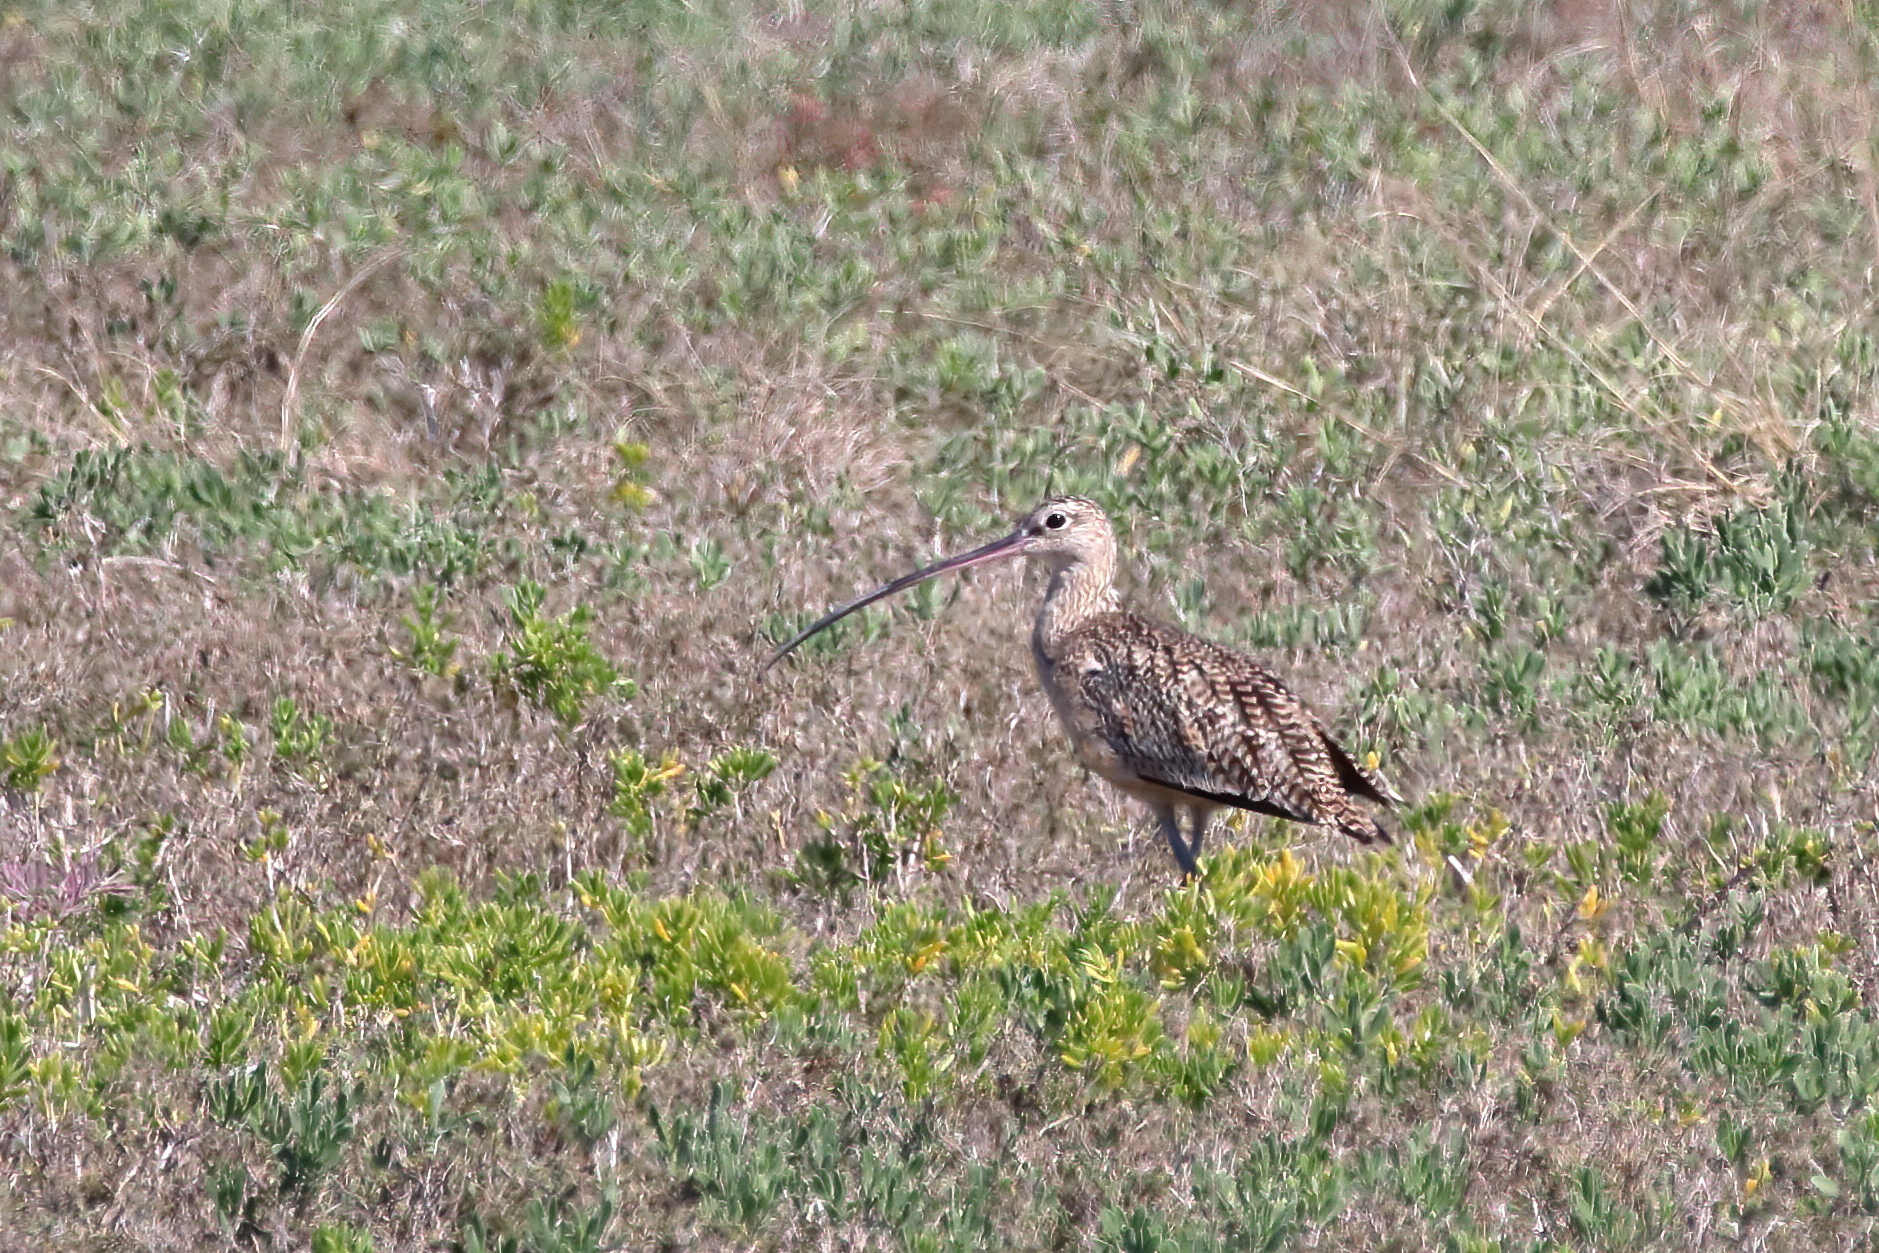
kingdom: Animalia
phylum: Chordata
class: Aves
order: Charadriiformes
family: Scolopacidae
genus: Numenius
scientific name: Numenius americanus
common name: Long-billed curlew
